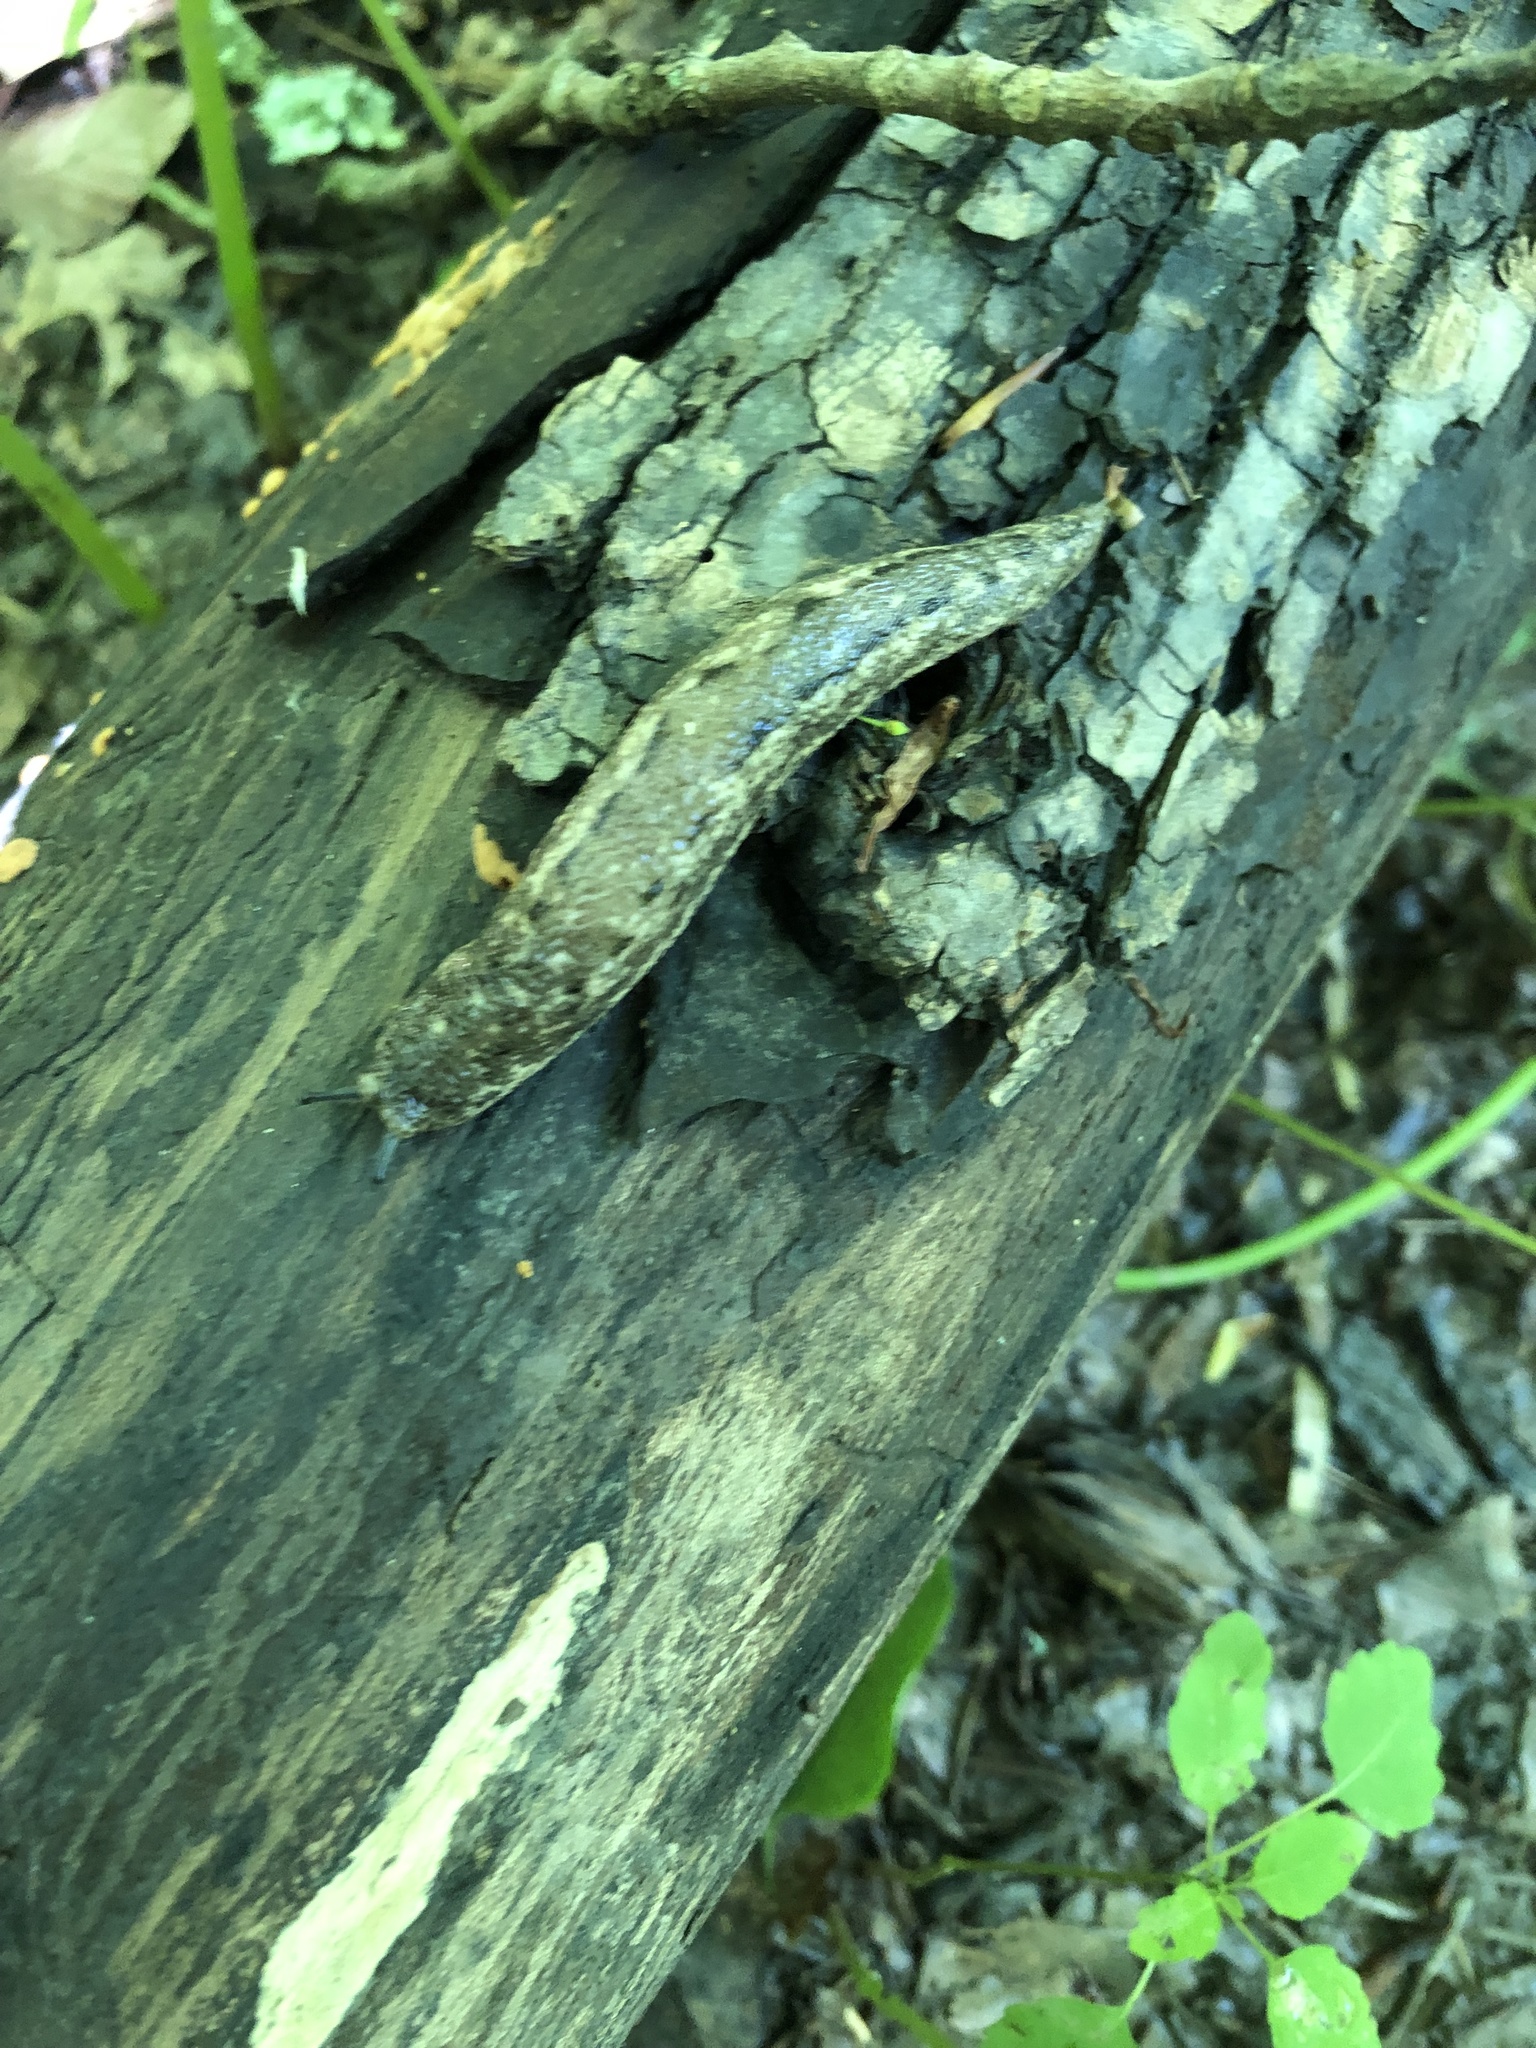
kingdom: Animalia
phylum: Mollusca
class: Gastropoda
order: Stylommatophora
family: Philomycidae
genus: Philomycus
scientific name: Philomycus carolinianus
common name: Carolina mantleslug
